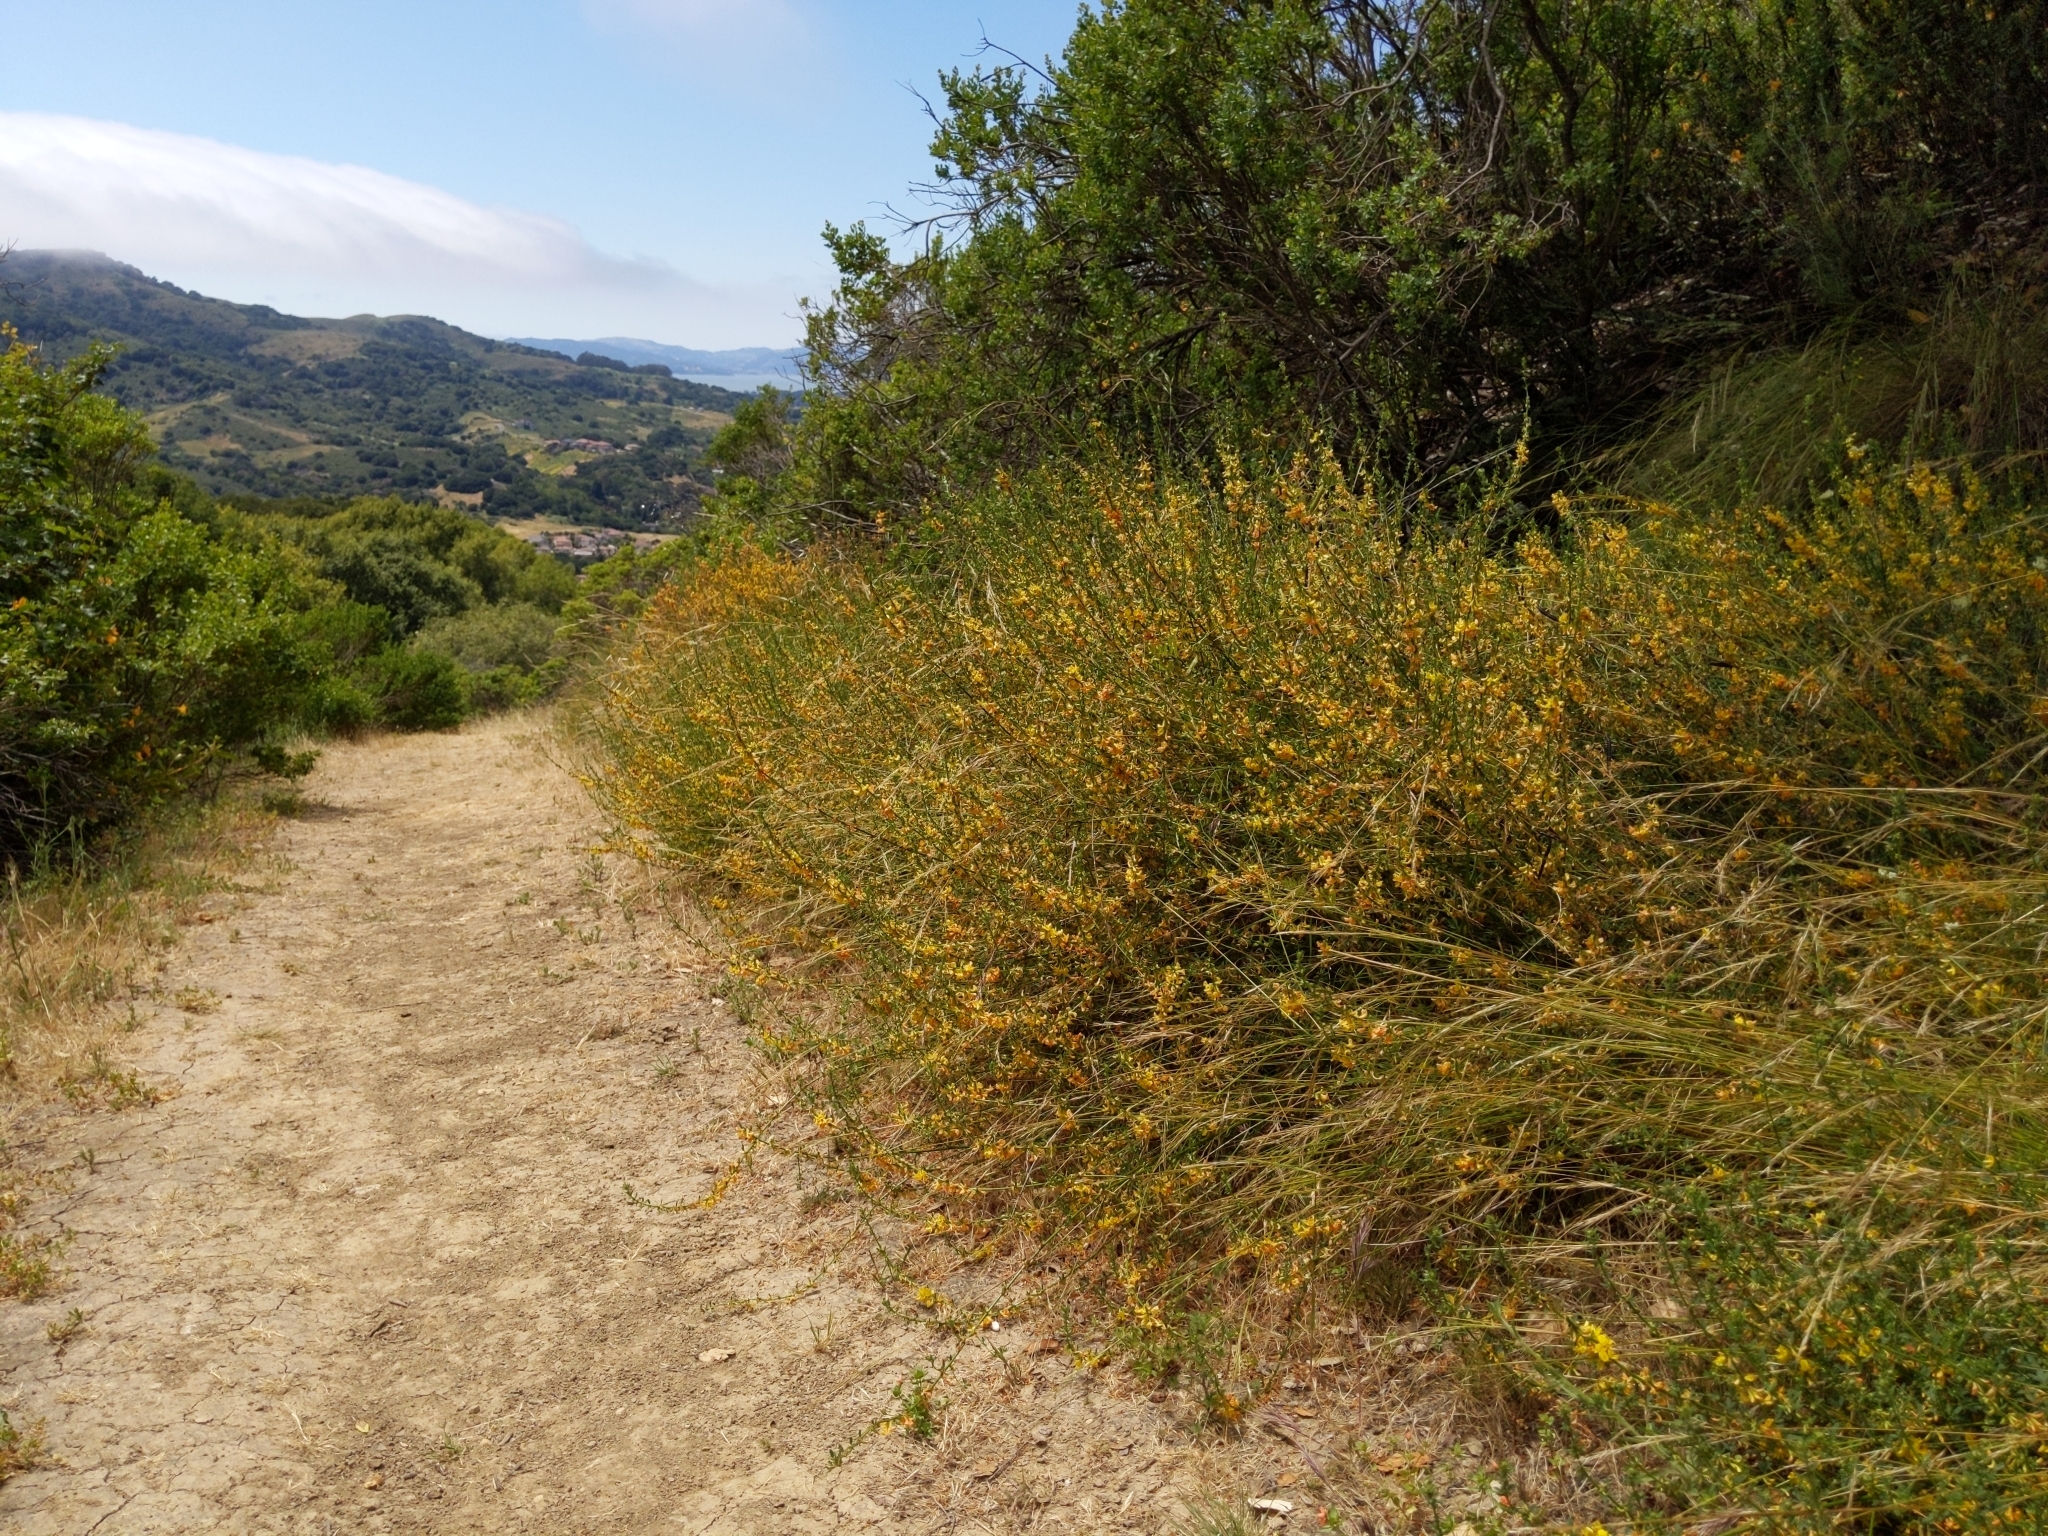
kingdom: Plantae
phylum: Tracheophyta
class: Magnoliopsida
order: Fabales
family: Fabaceae
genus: Acmispon
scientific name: Acmispon glaber
